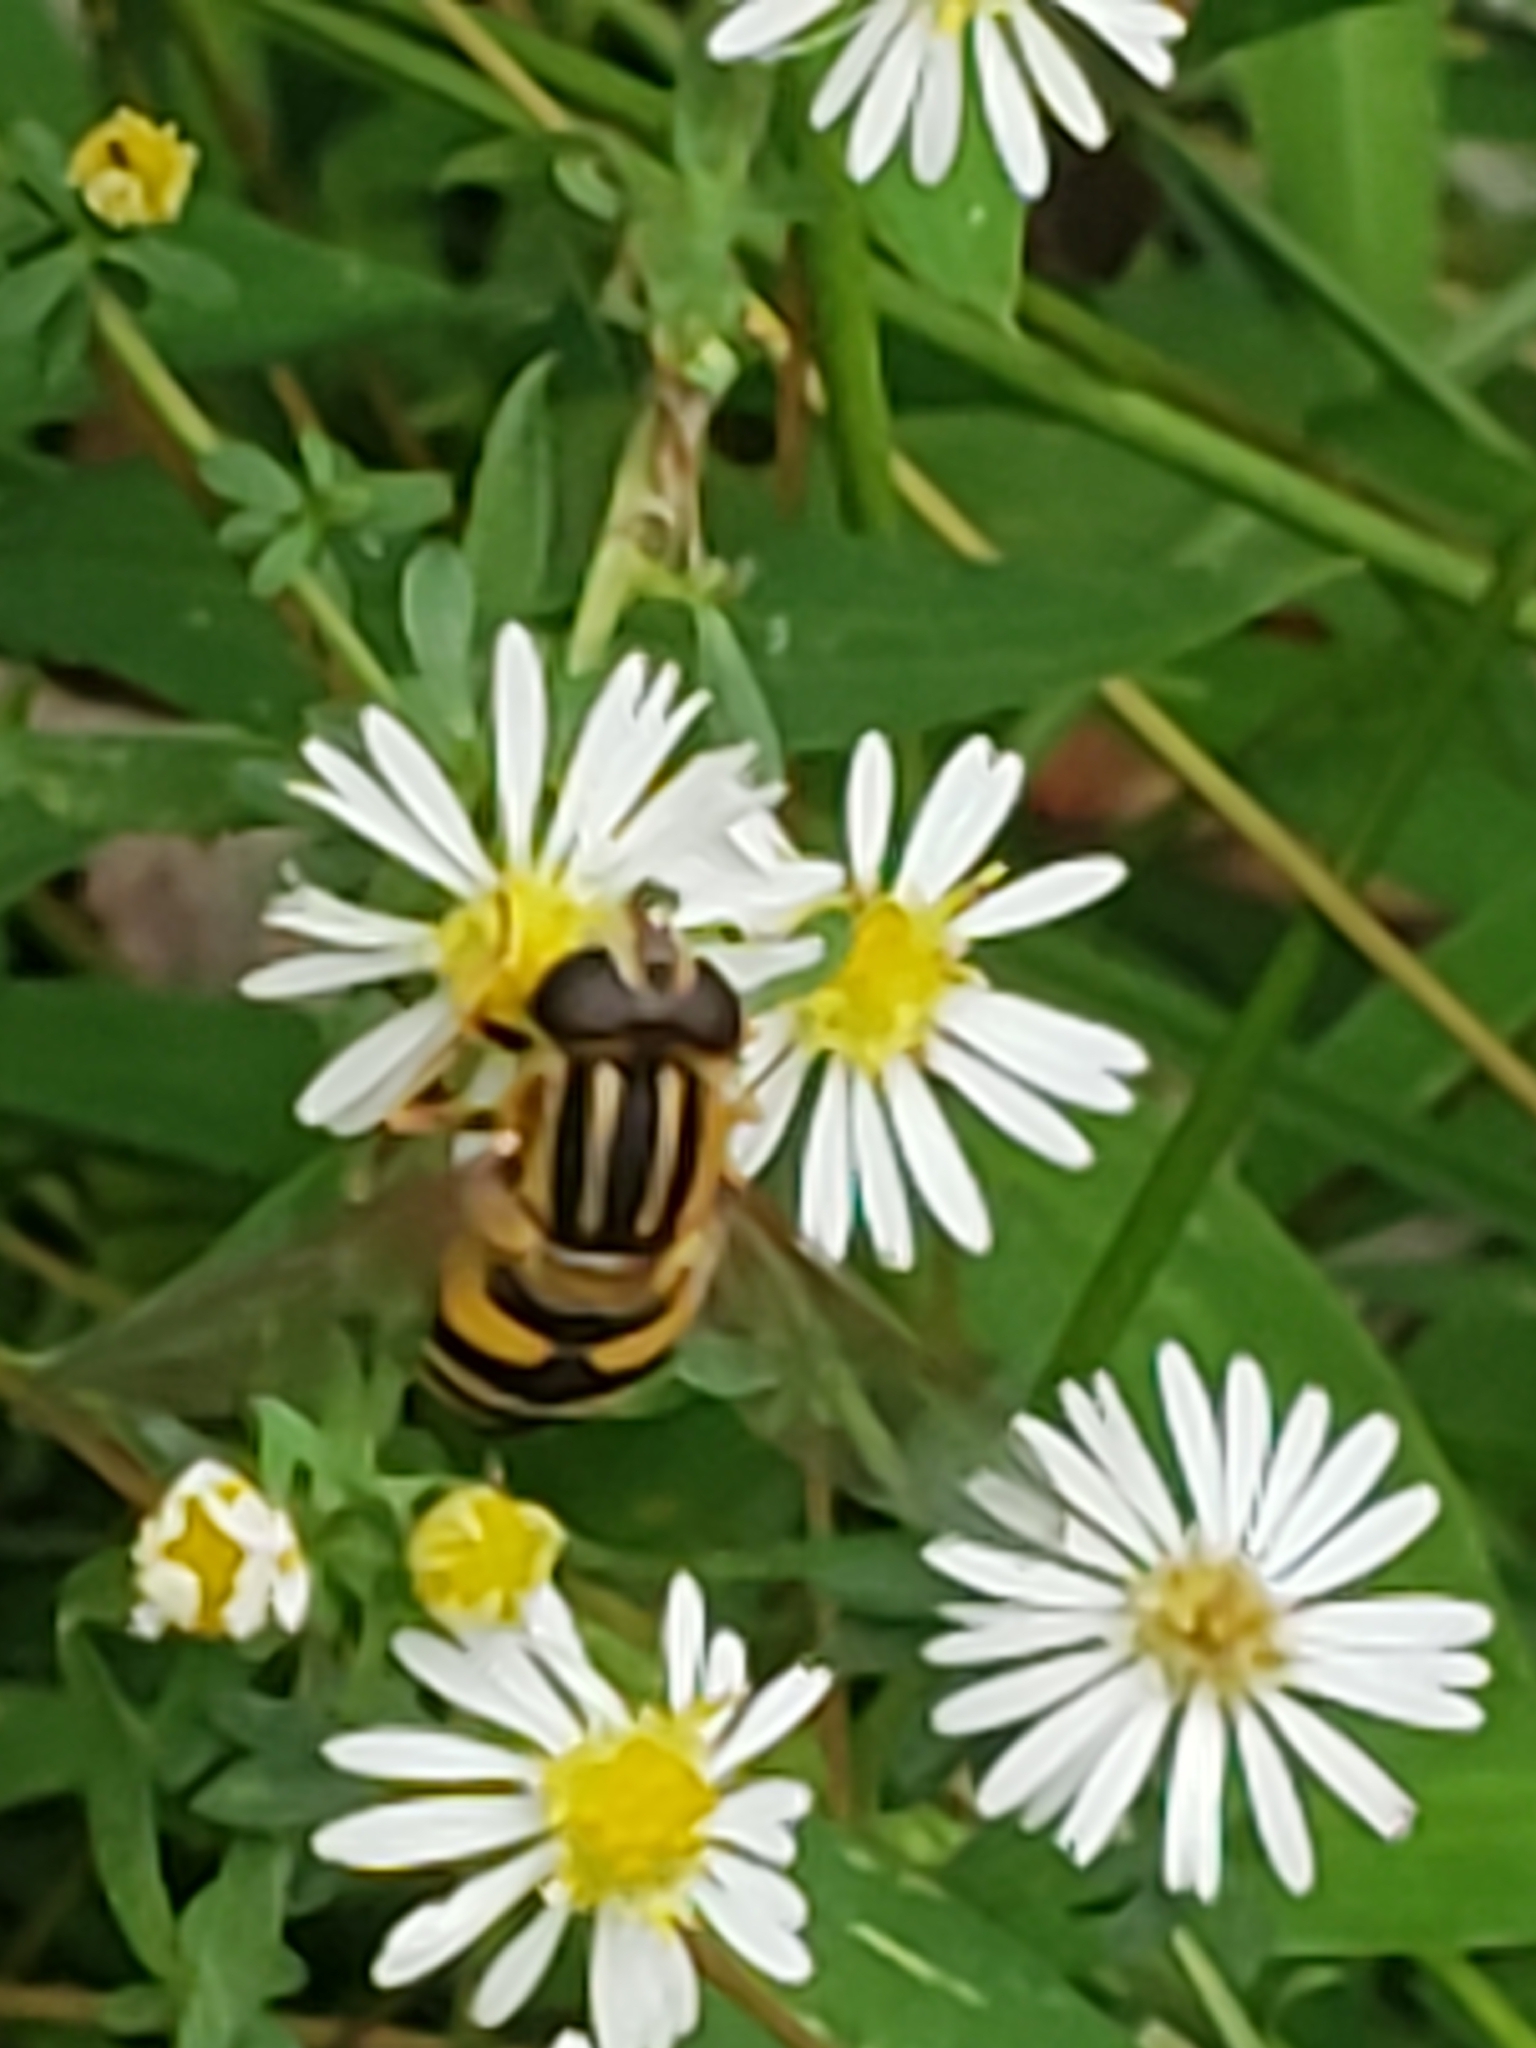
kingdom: Animalia
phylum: Arthropoda
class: Insecta
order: Diptera
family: Syrphidae
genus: Helophilus
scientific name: Helophilus fasciatus
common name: Narrow-headed marsh fly
